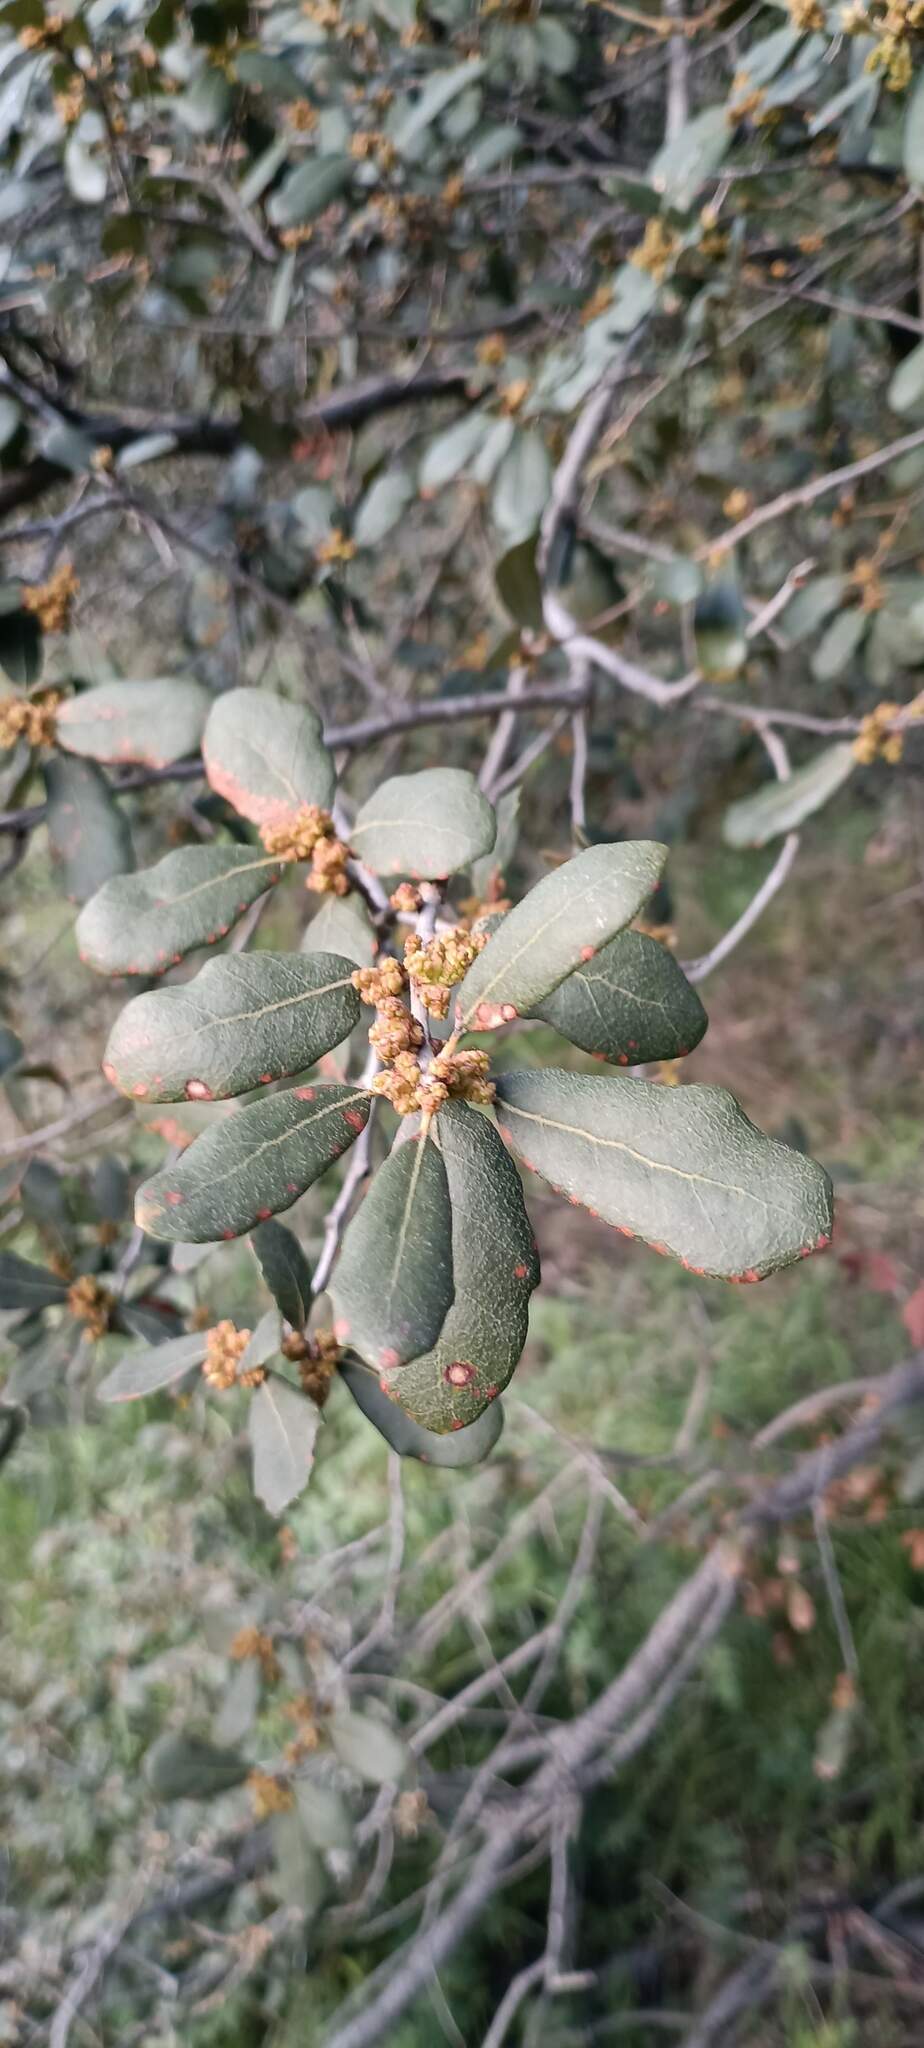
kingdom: Plantae
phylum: Tracheophyta
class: Magnoliopsida
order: Fagales
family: Fagaceae
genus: Quercus
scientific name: Quercus engelmannii
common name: Engelmann oak
